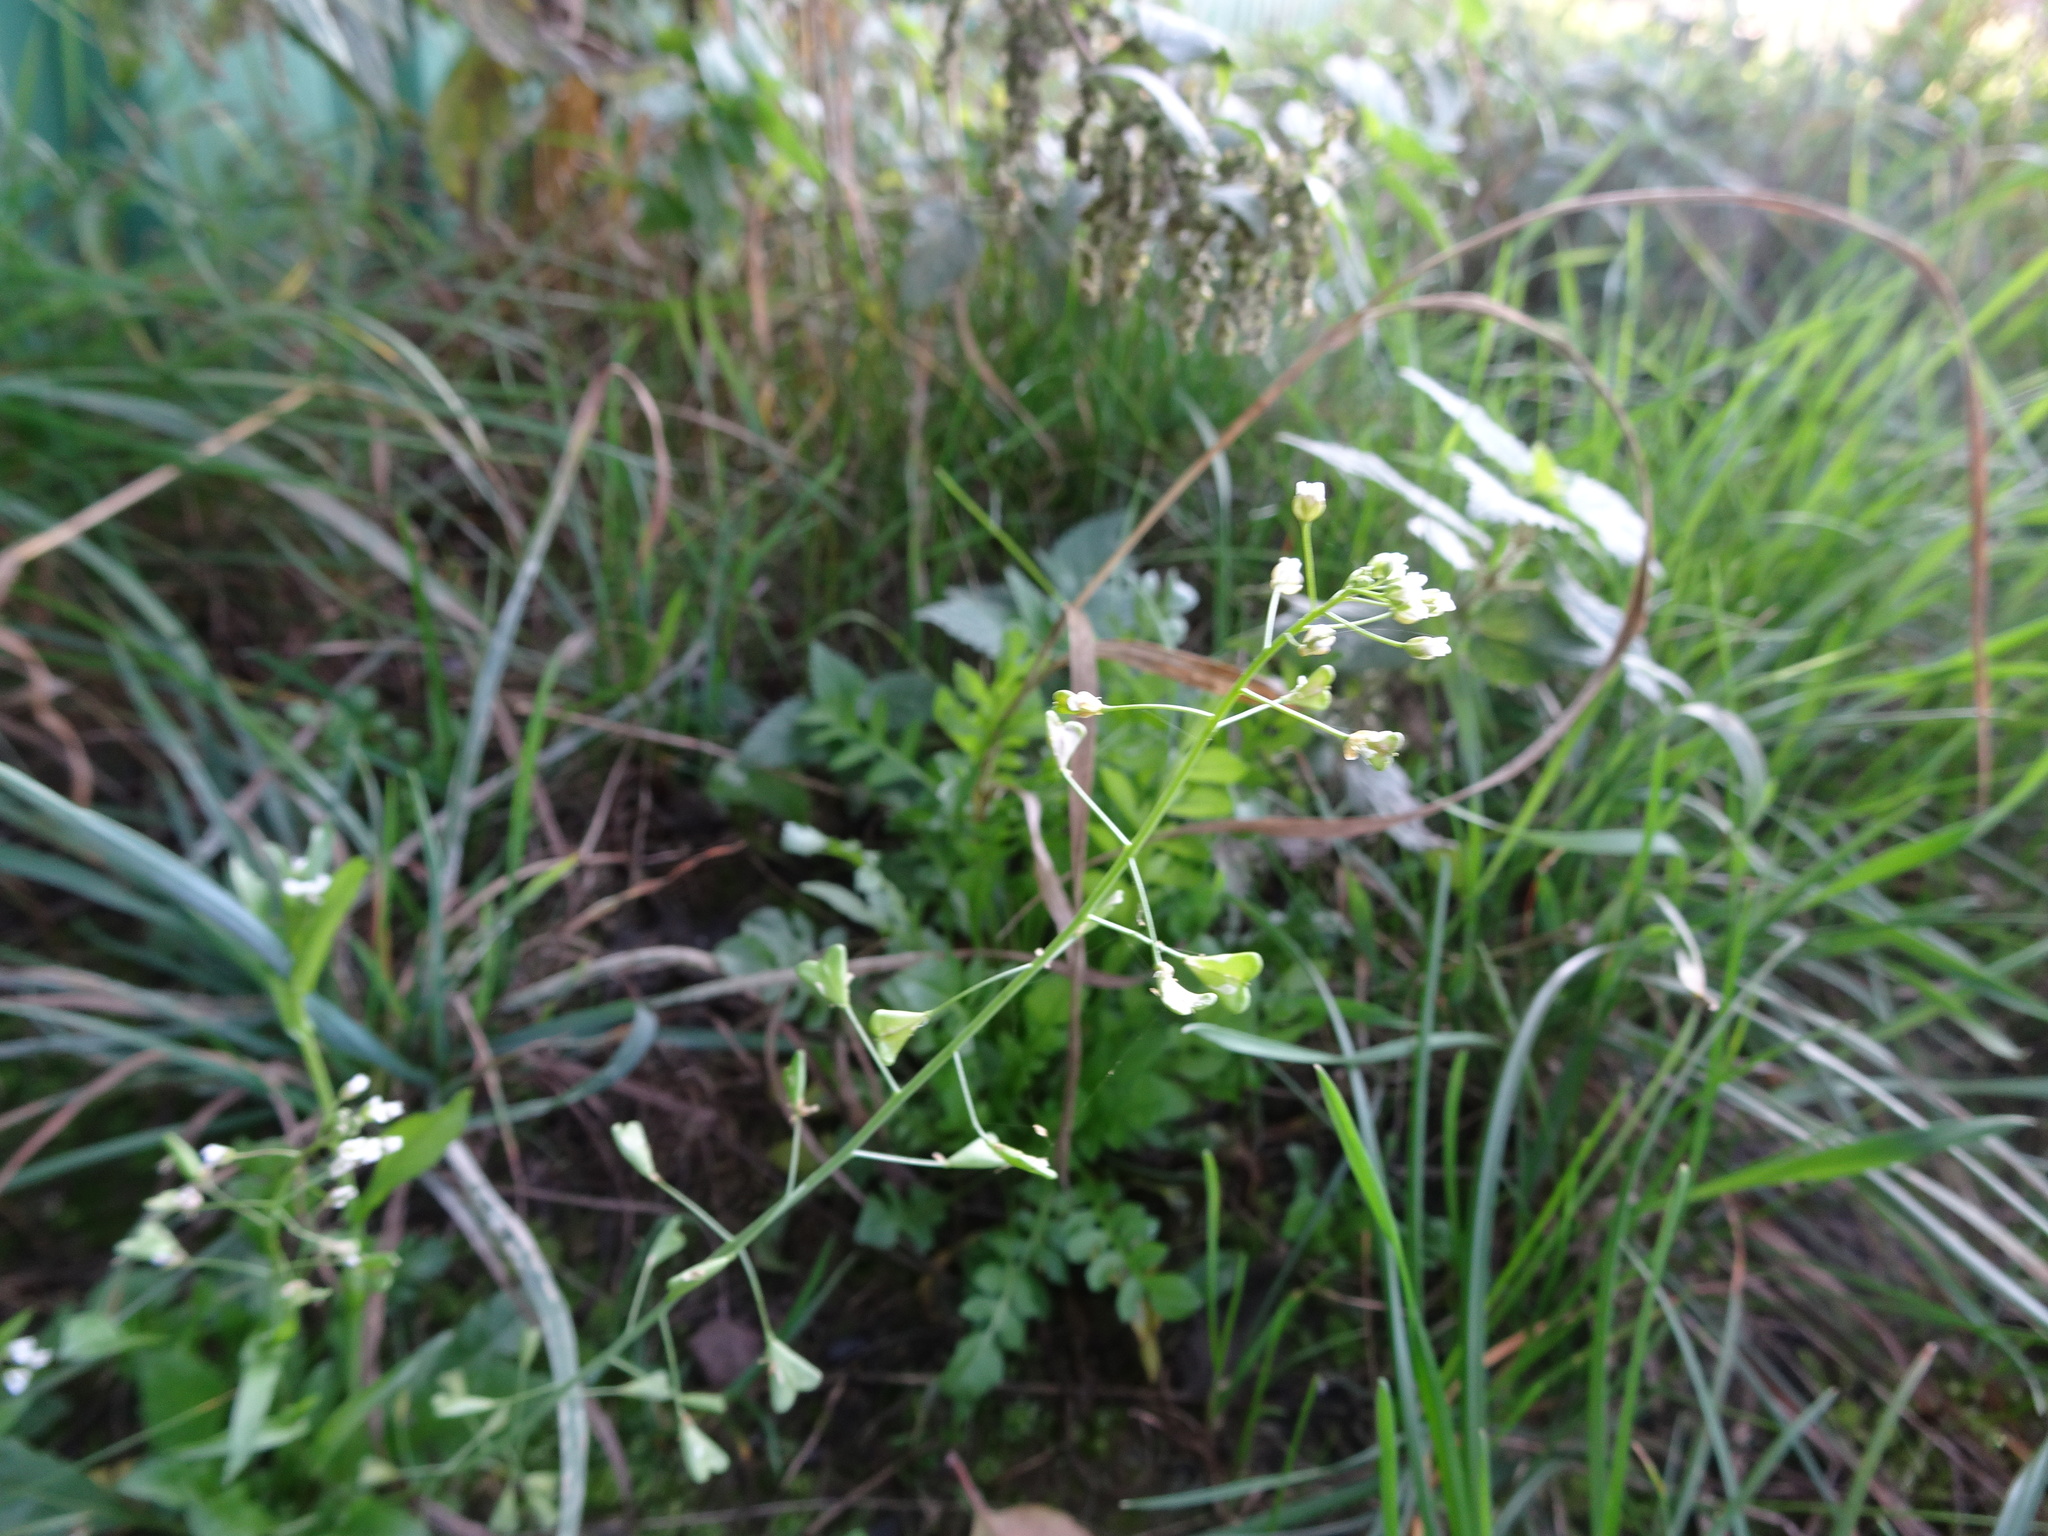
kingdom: Plantae
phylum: Tracheophyta
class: Magnoliopsida
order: Brassicales
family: Brassicaceae
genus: Capsella
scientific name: Capsella bursa-pastoris
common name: Shepherd's purse
